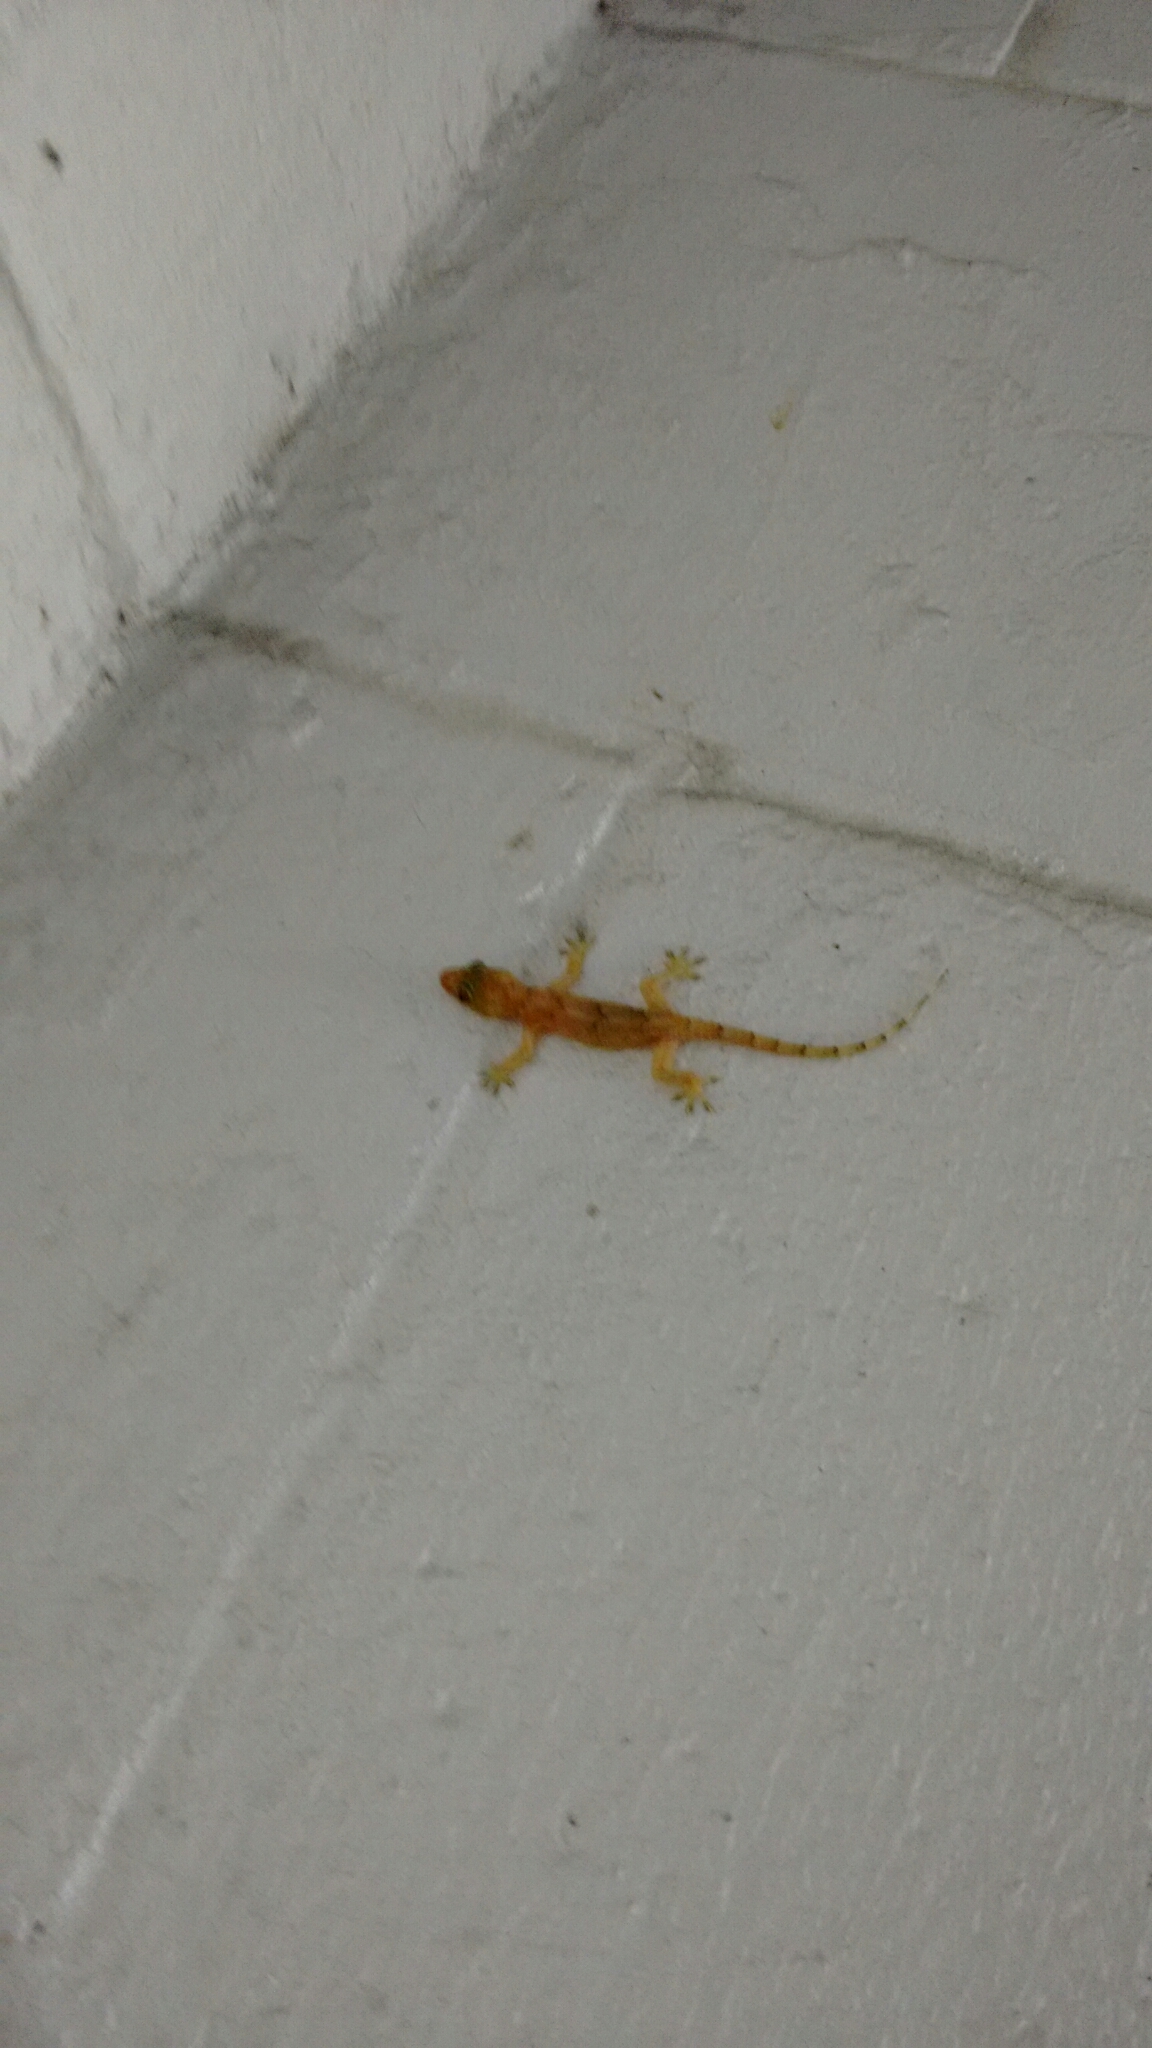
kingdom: Animalia
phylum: Chordata
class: Squamata
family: Gekkonidae
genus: Hemidactylus
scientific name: Hemidactylus mabouia
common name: House gecko
